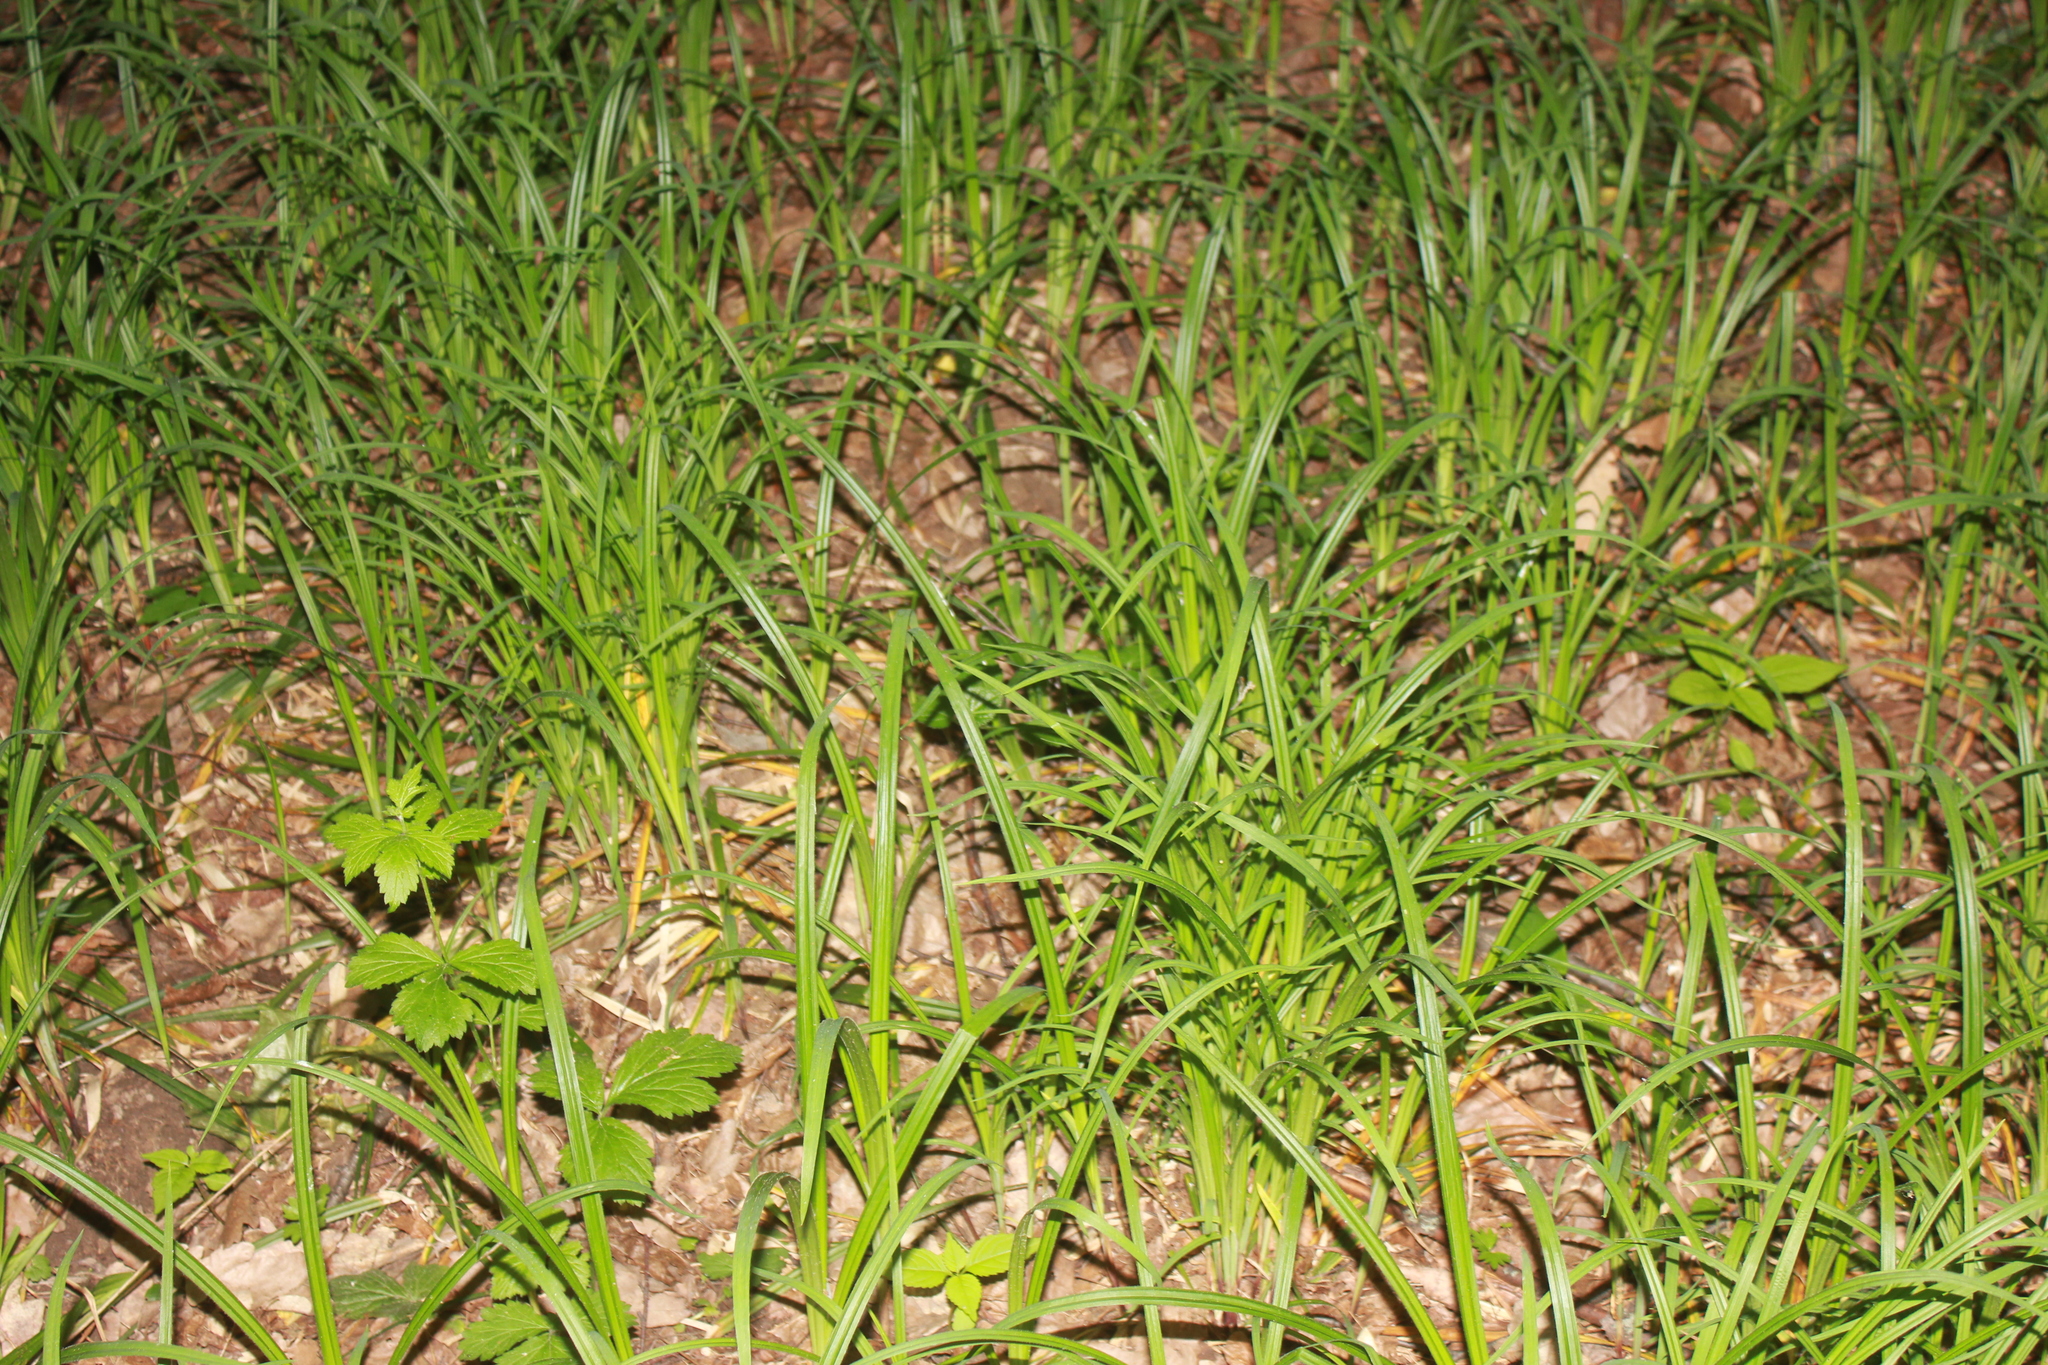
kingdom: Plantae
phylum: Tracheophyta
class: Liliopsida
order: Poales
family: Cyperaceae
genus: Carex
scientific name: Carex pilosa
